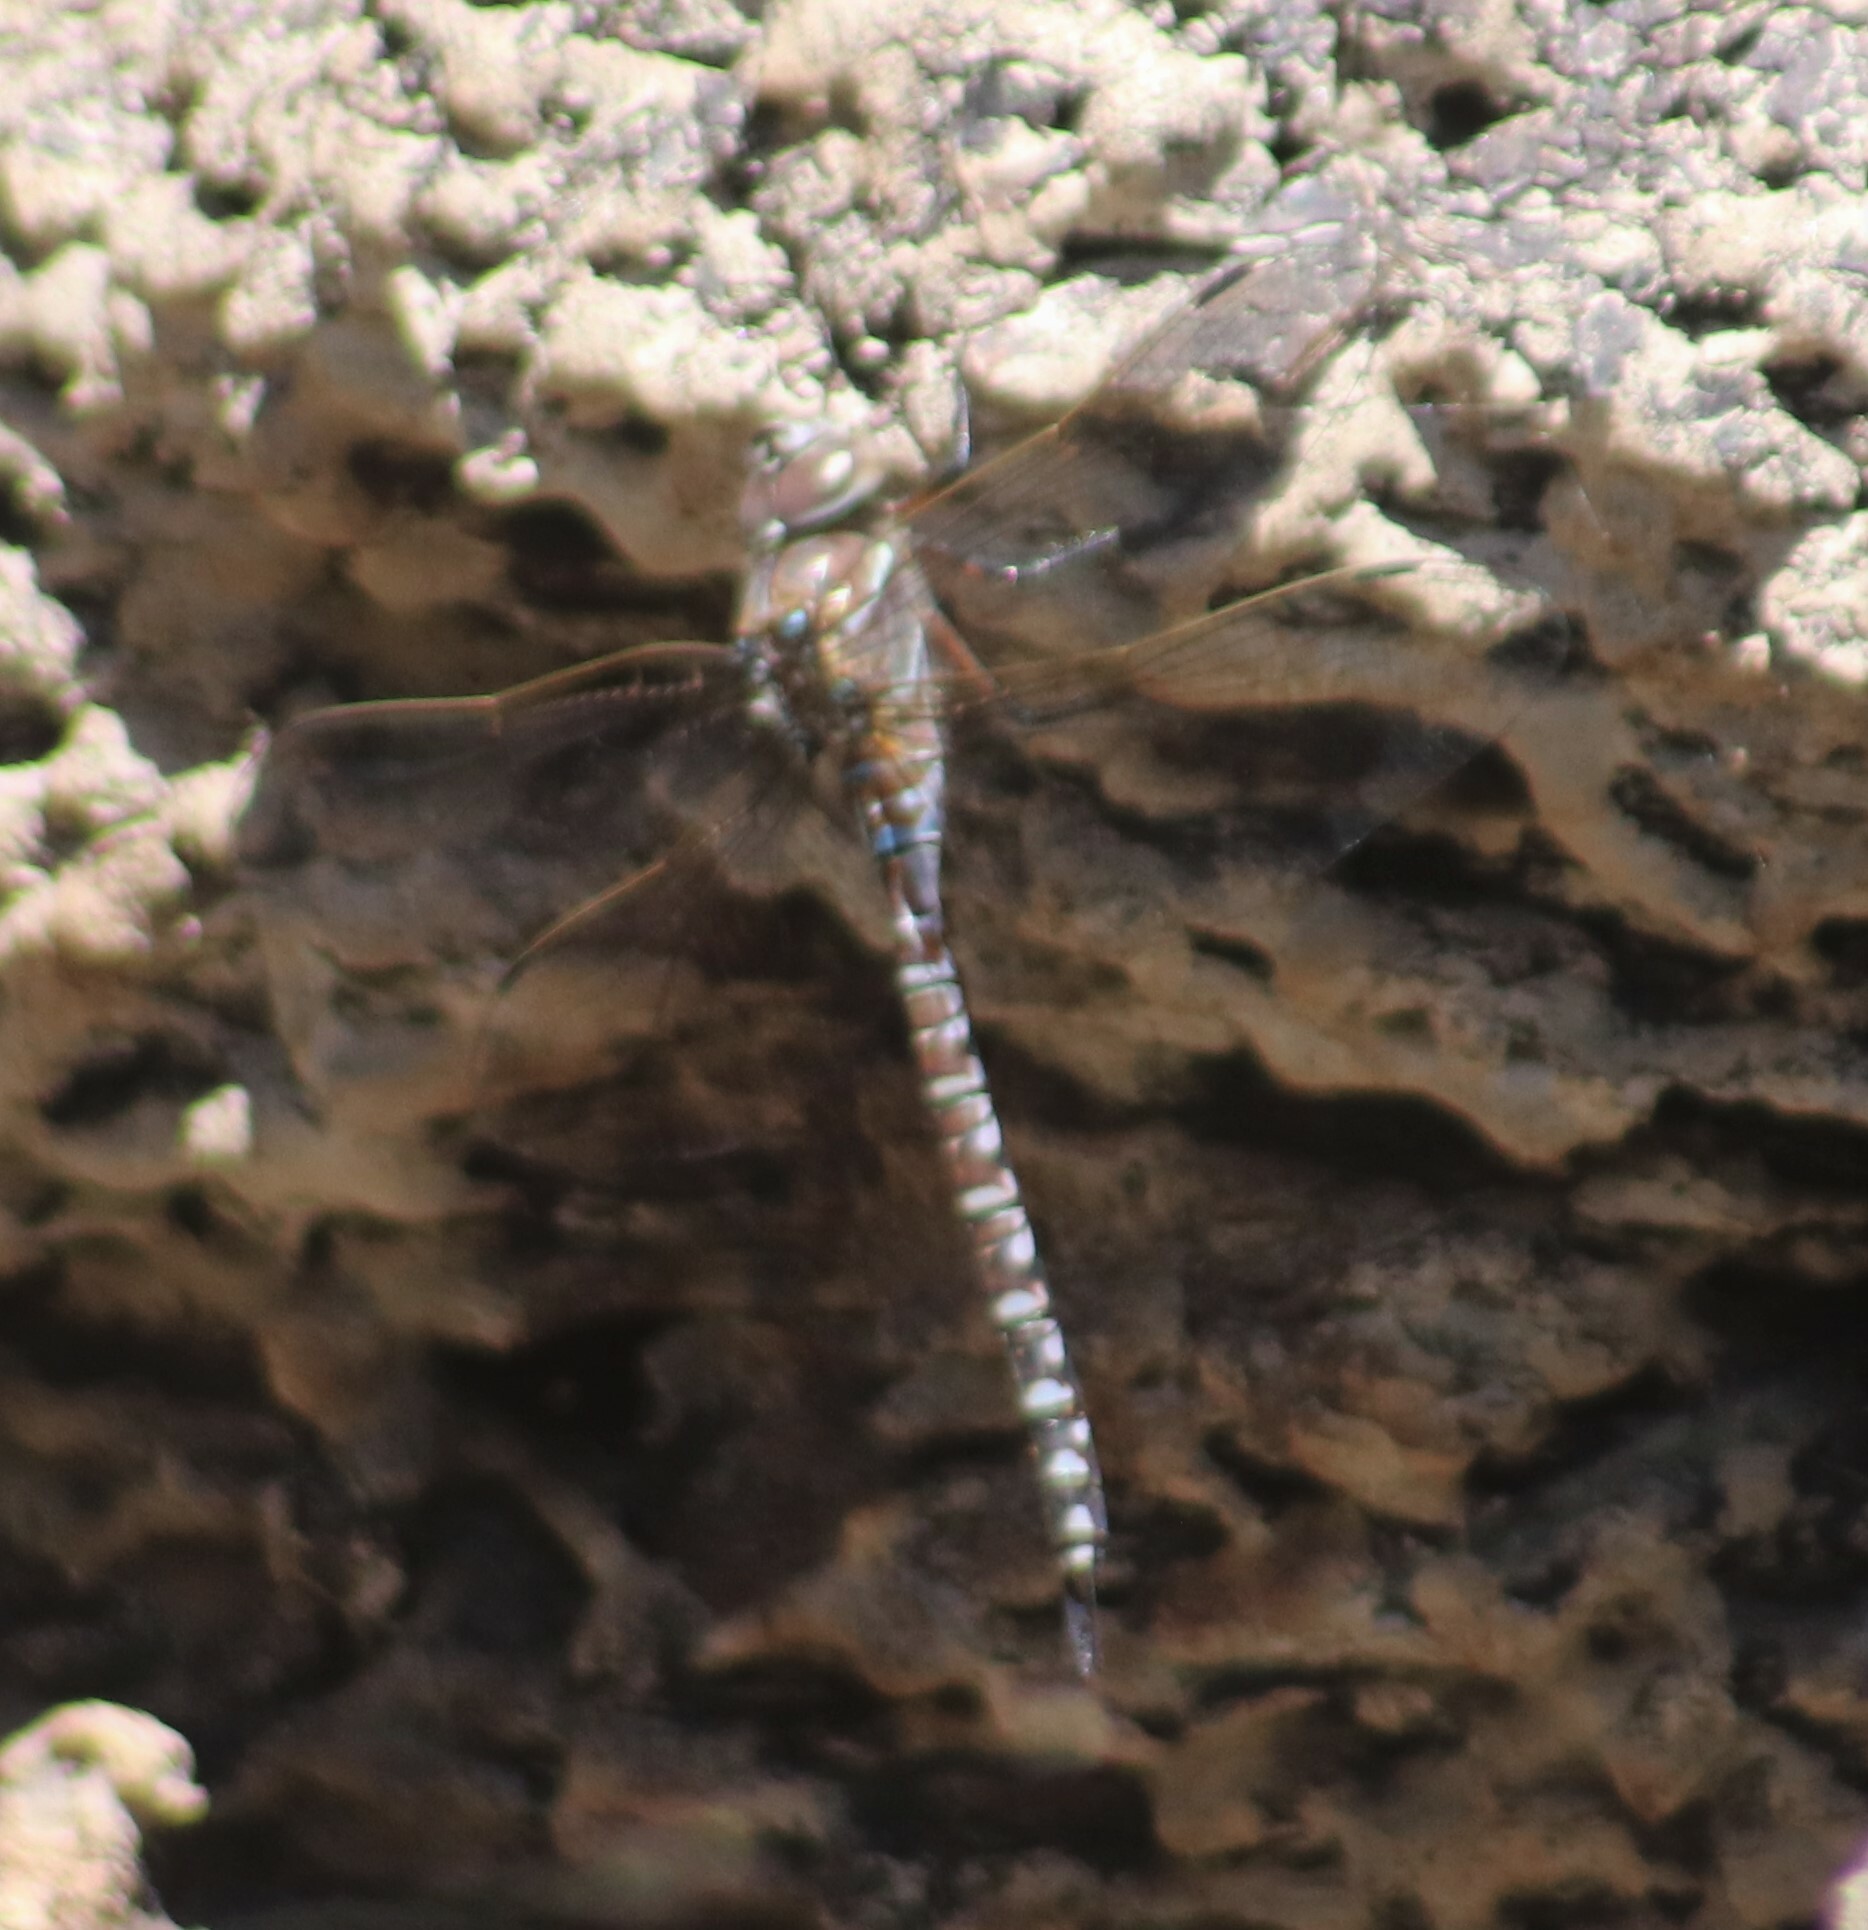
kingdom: Animalia
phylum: Arthropoda
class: Insecta
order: Odonata
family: Aeshnidae
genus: Aeshna
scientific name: Aeshna interrupta
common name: Variable darner
